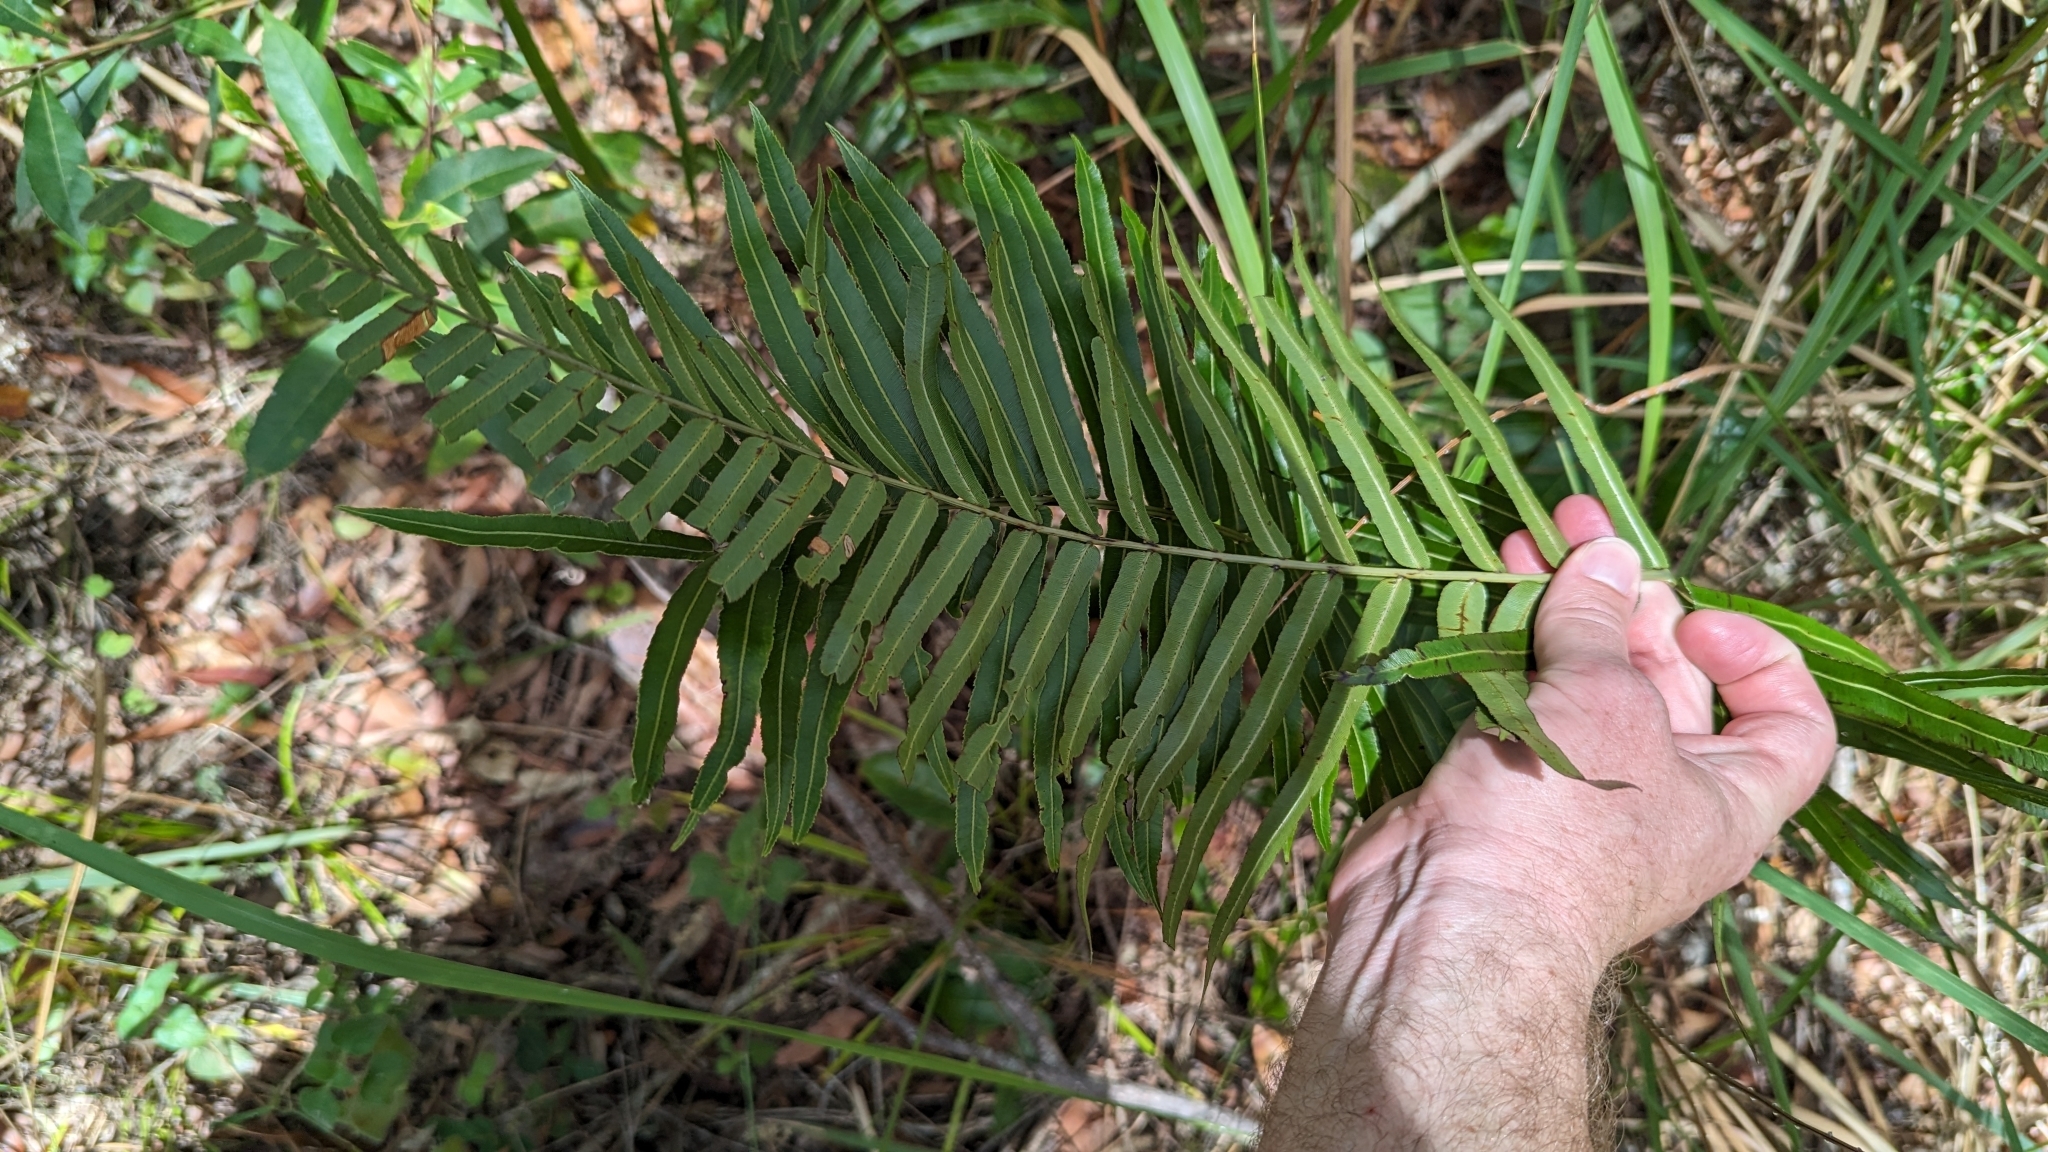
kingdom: Plantae
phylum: Tracheophyta
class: Polypodiopsida
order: Polypodiales
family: Blechnaceae
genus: Telmatoblechnum
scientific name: Telmatoblechnum indicum
